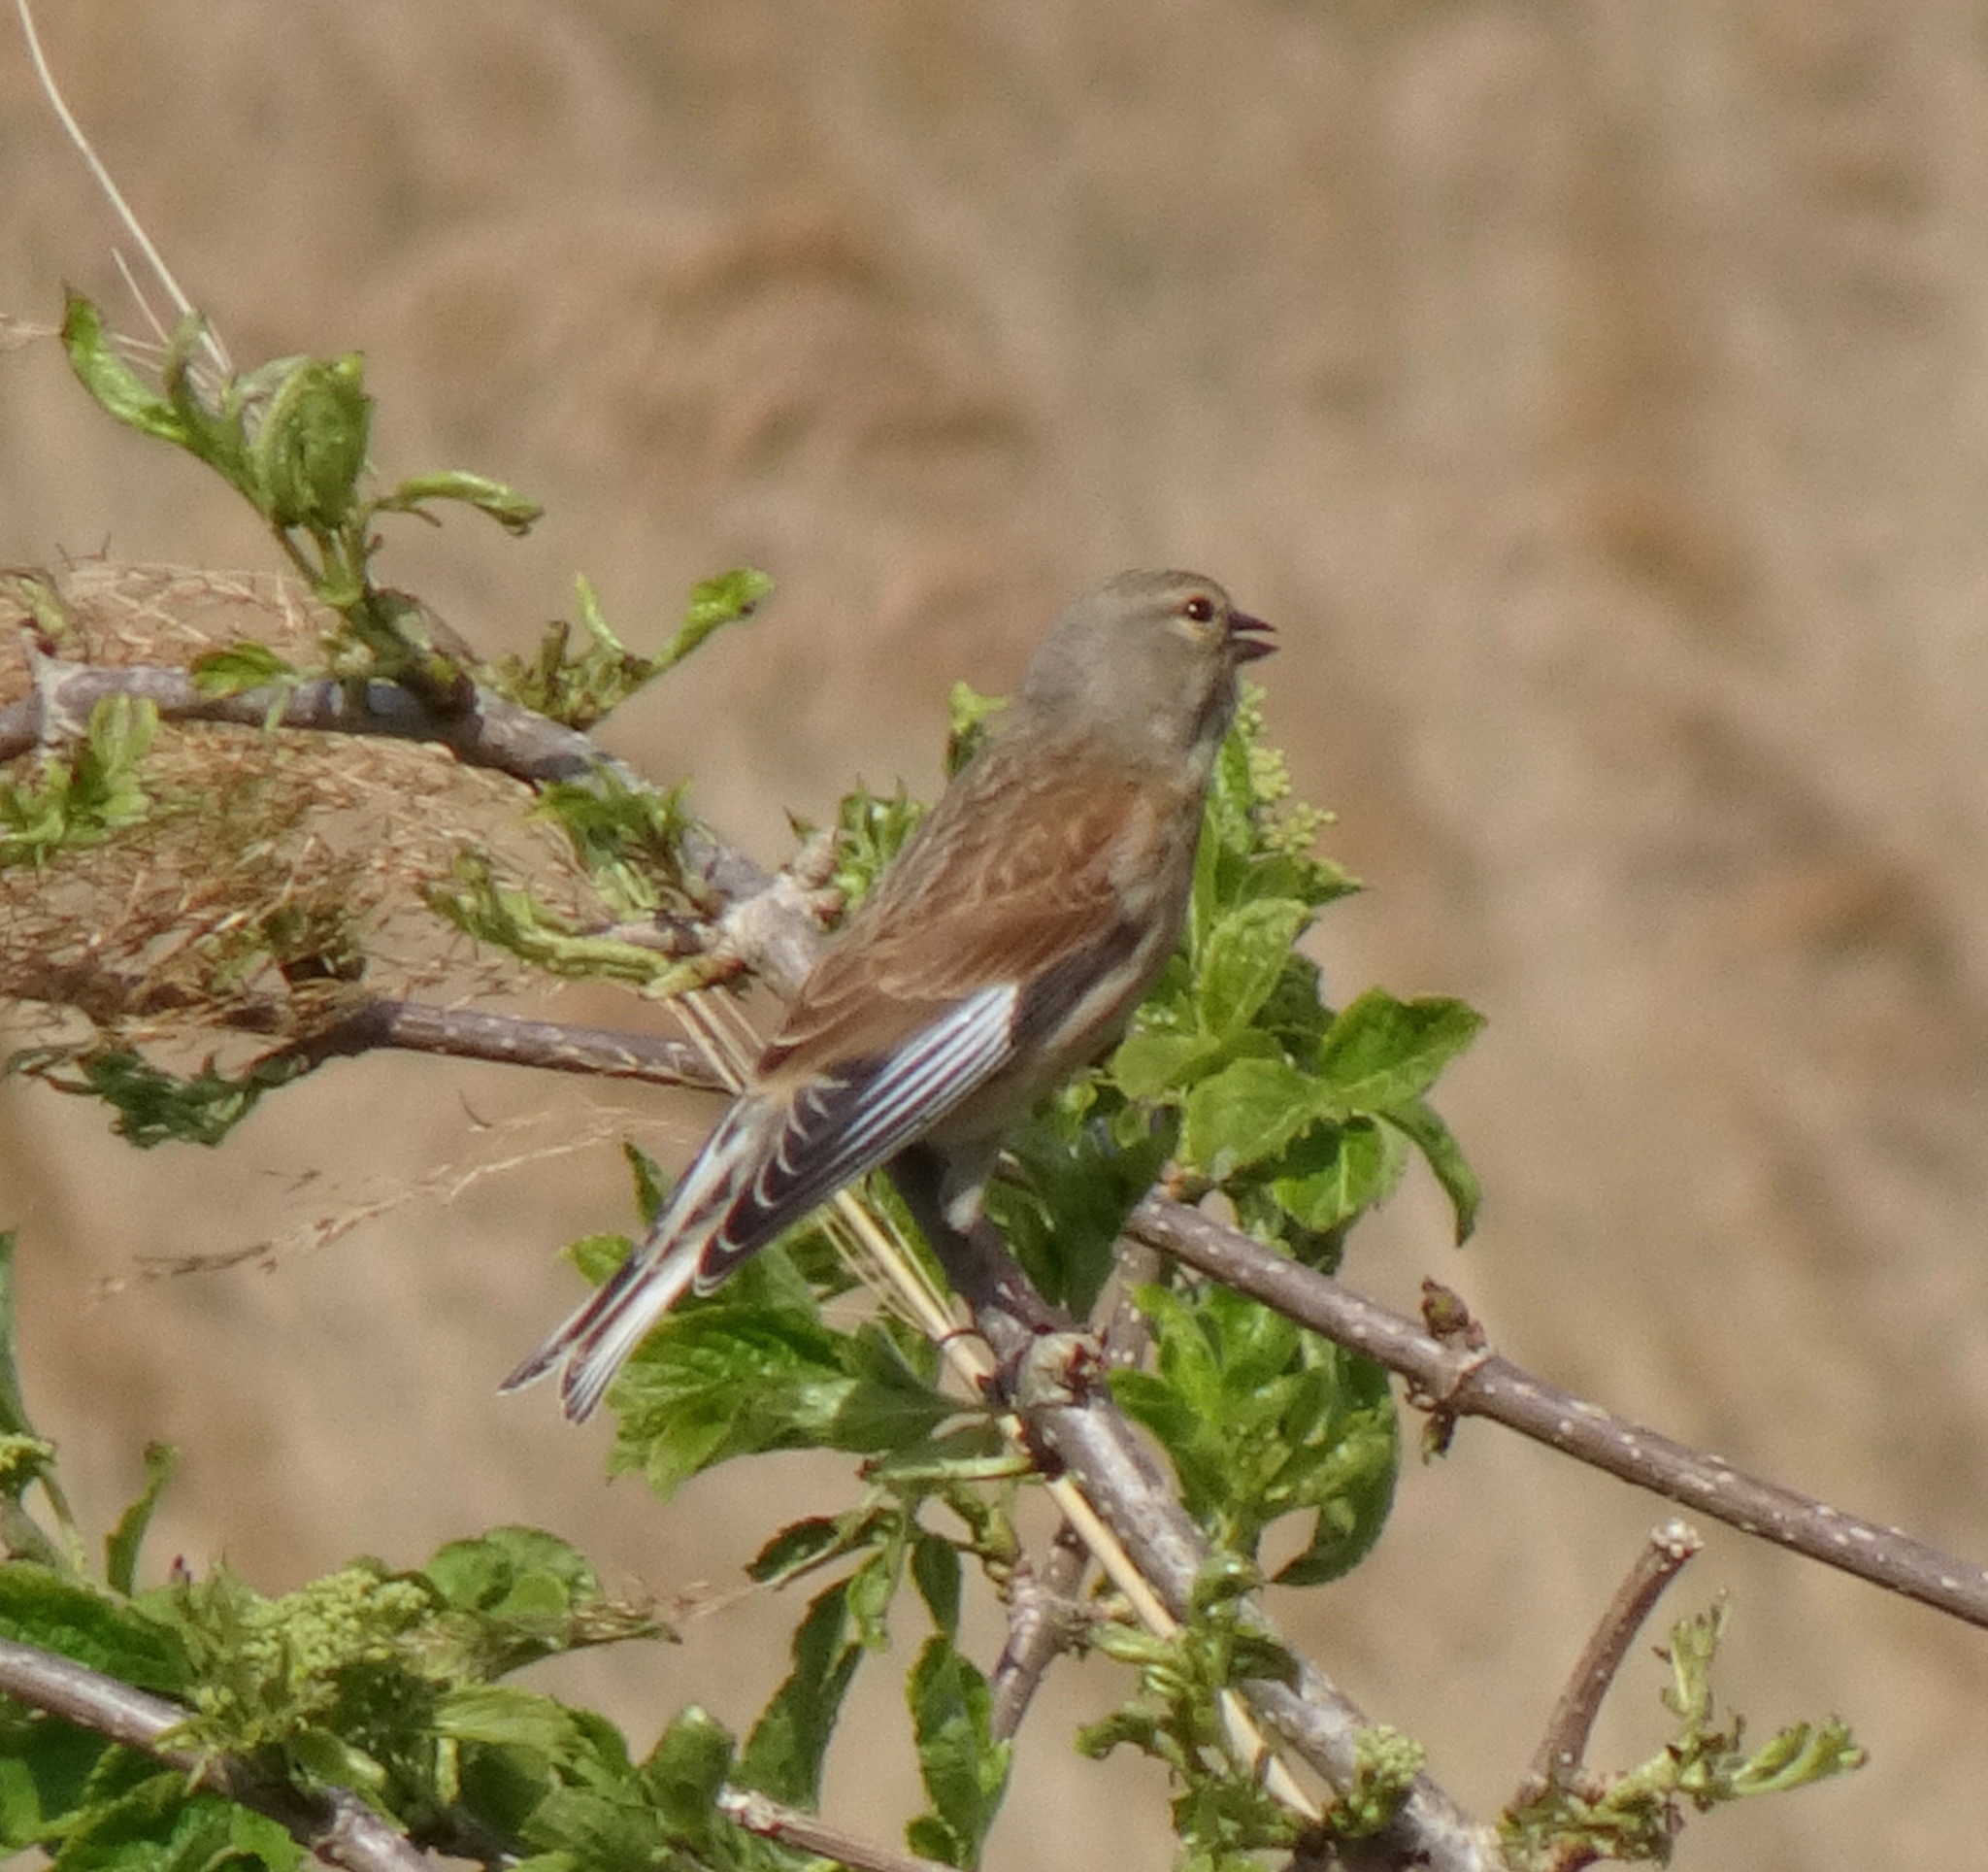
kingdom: Animalia
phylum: Chordata
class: Aves
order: Passeriformes
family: Fringillidae
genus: Linaria
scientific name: Linaria cannabina
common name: Common linnet
